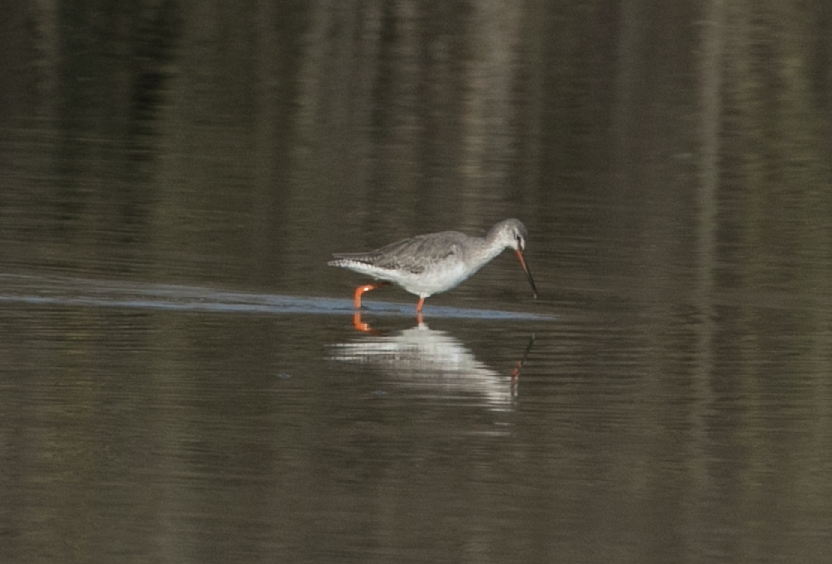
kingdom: Animalia
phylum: Chordata
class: Aves
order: Charadriiformes
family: Scolopacidae
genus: Tringa
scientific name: Tringa erythropus
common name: Spotted redshank
